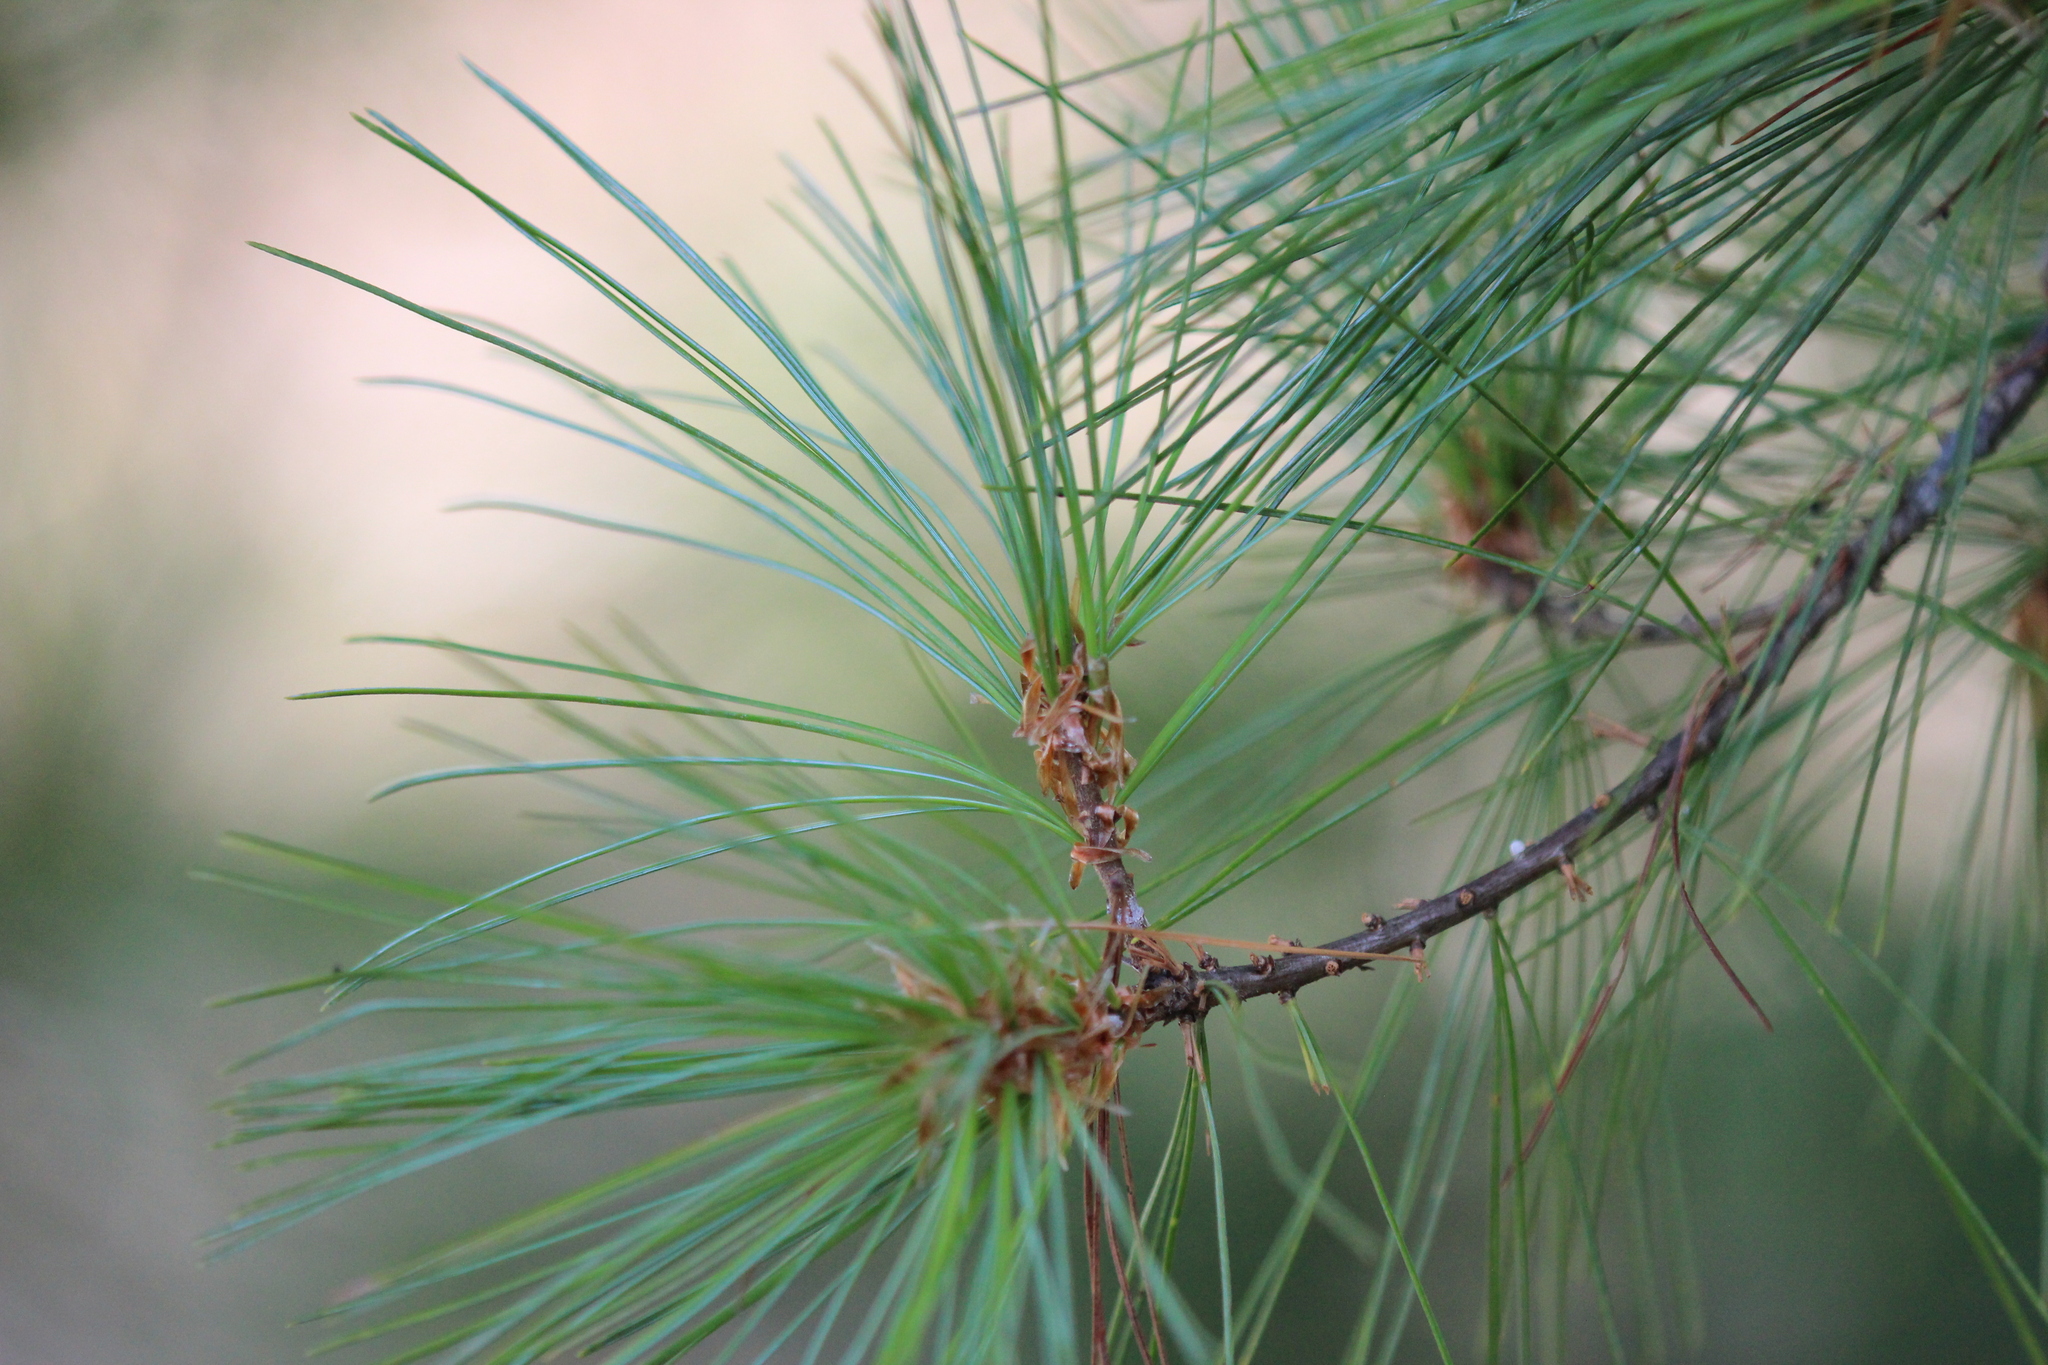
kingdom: Plantae
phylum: Tracheophyta
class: Pinopsida
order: Pinales
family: Pinaceae
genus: Pinus
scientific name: Pinus strobus
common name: Weymouth pine
